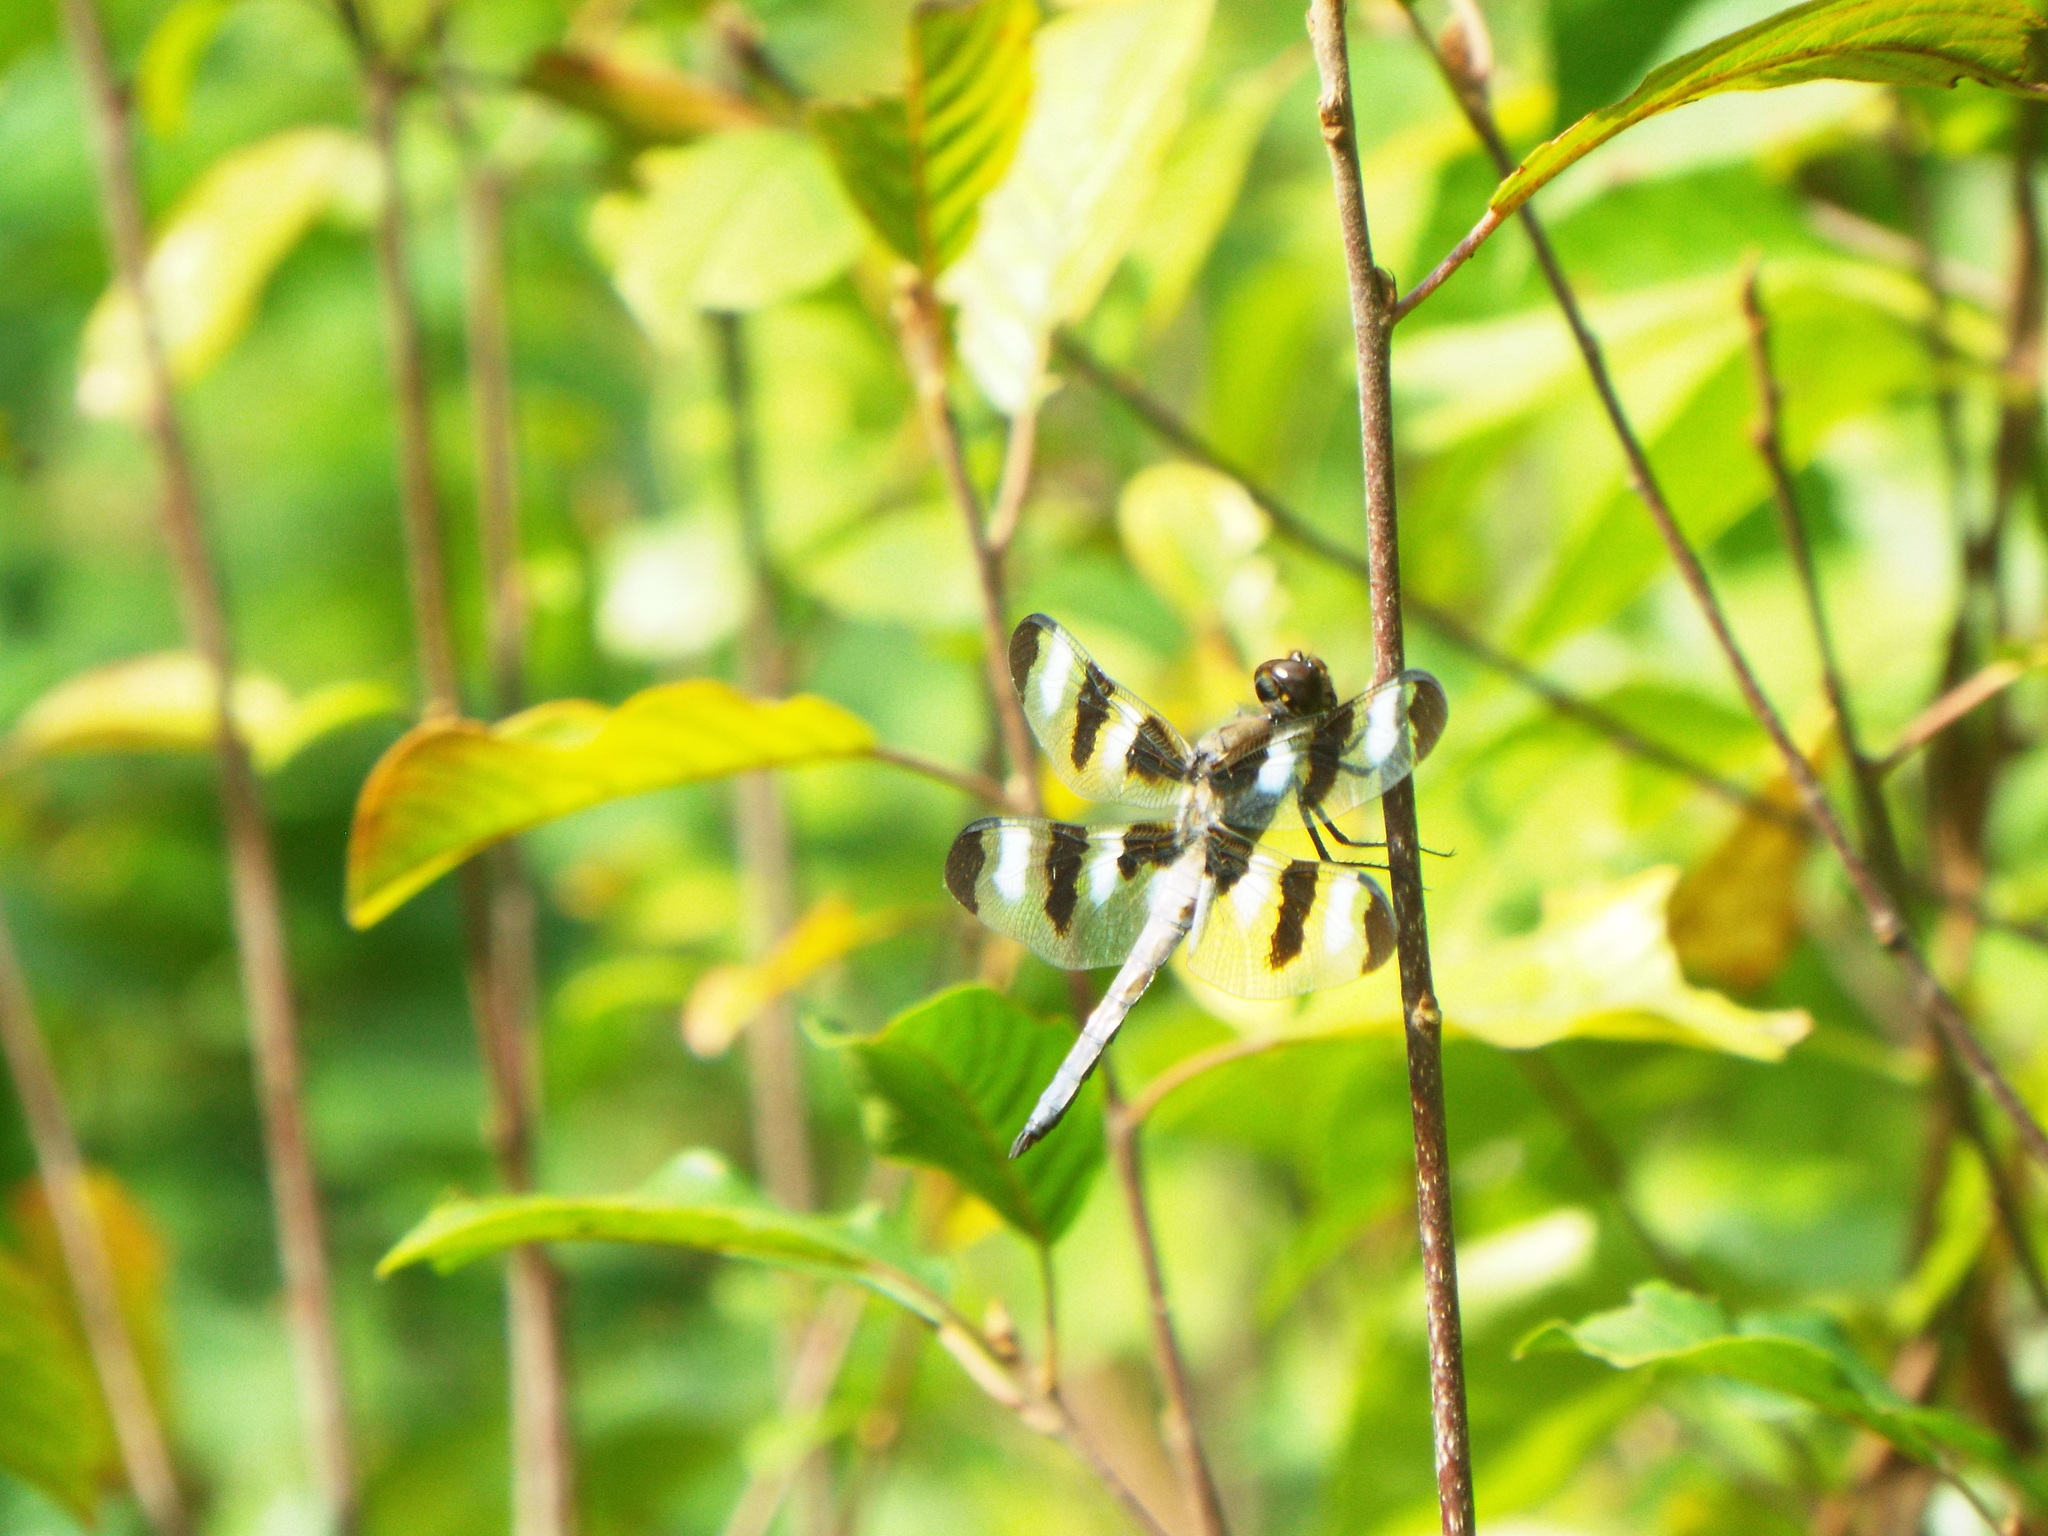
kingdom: Animalia
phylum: Arthropoda
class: Insecta
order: Odonata
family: Libellulidae
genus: Libellula
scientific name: Libellula pulchella
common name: Twelve-spotted skimmer
